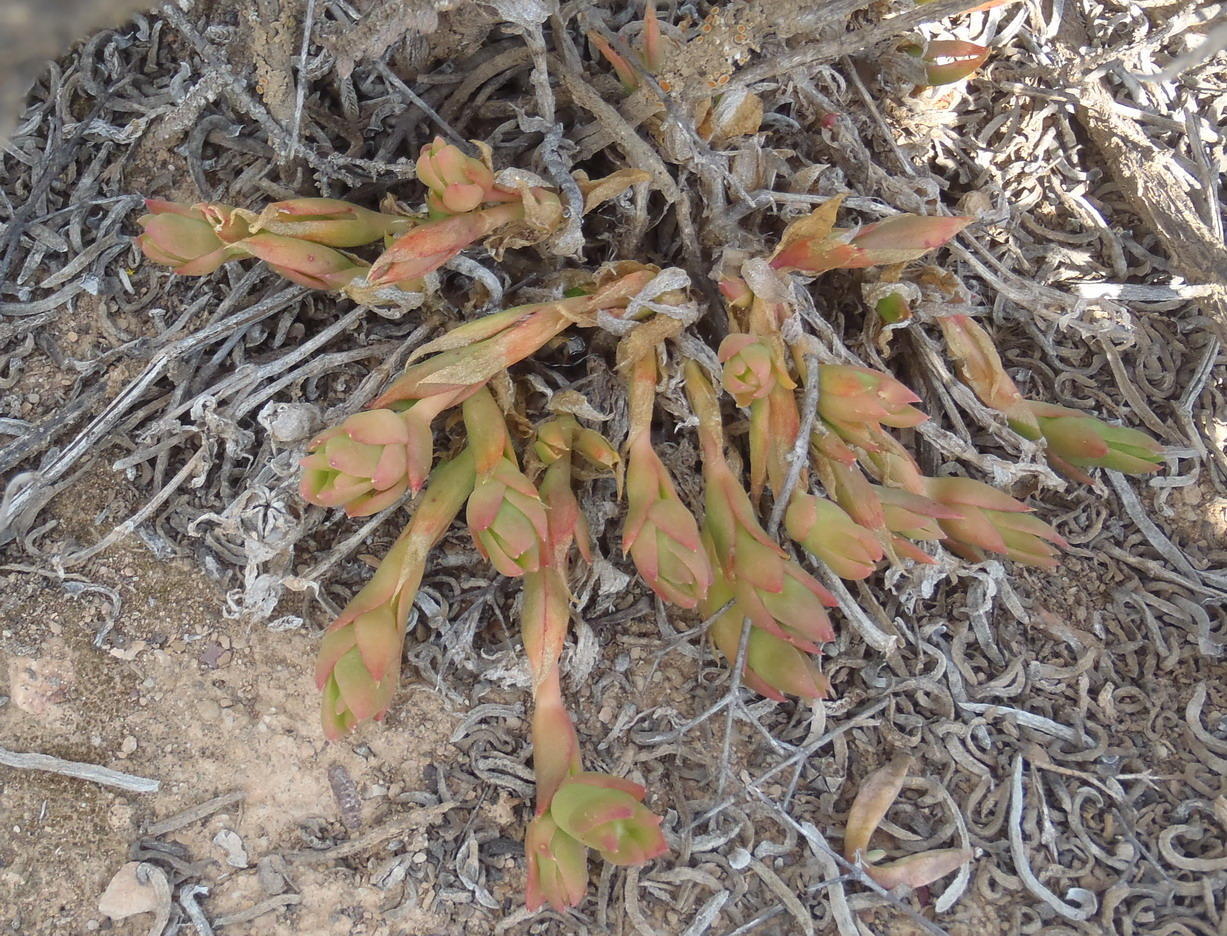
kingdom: Plantae
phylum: Tracheophyta
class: Magnoliopsida
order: Caryophyllales
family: Aizoaceae
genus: Mesembryanthemum
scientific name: Mesembryanthemum tortuosum
